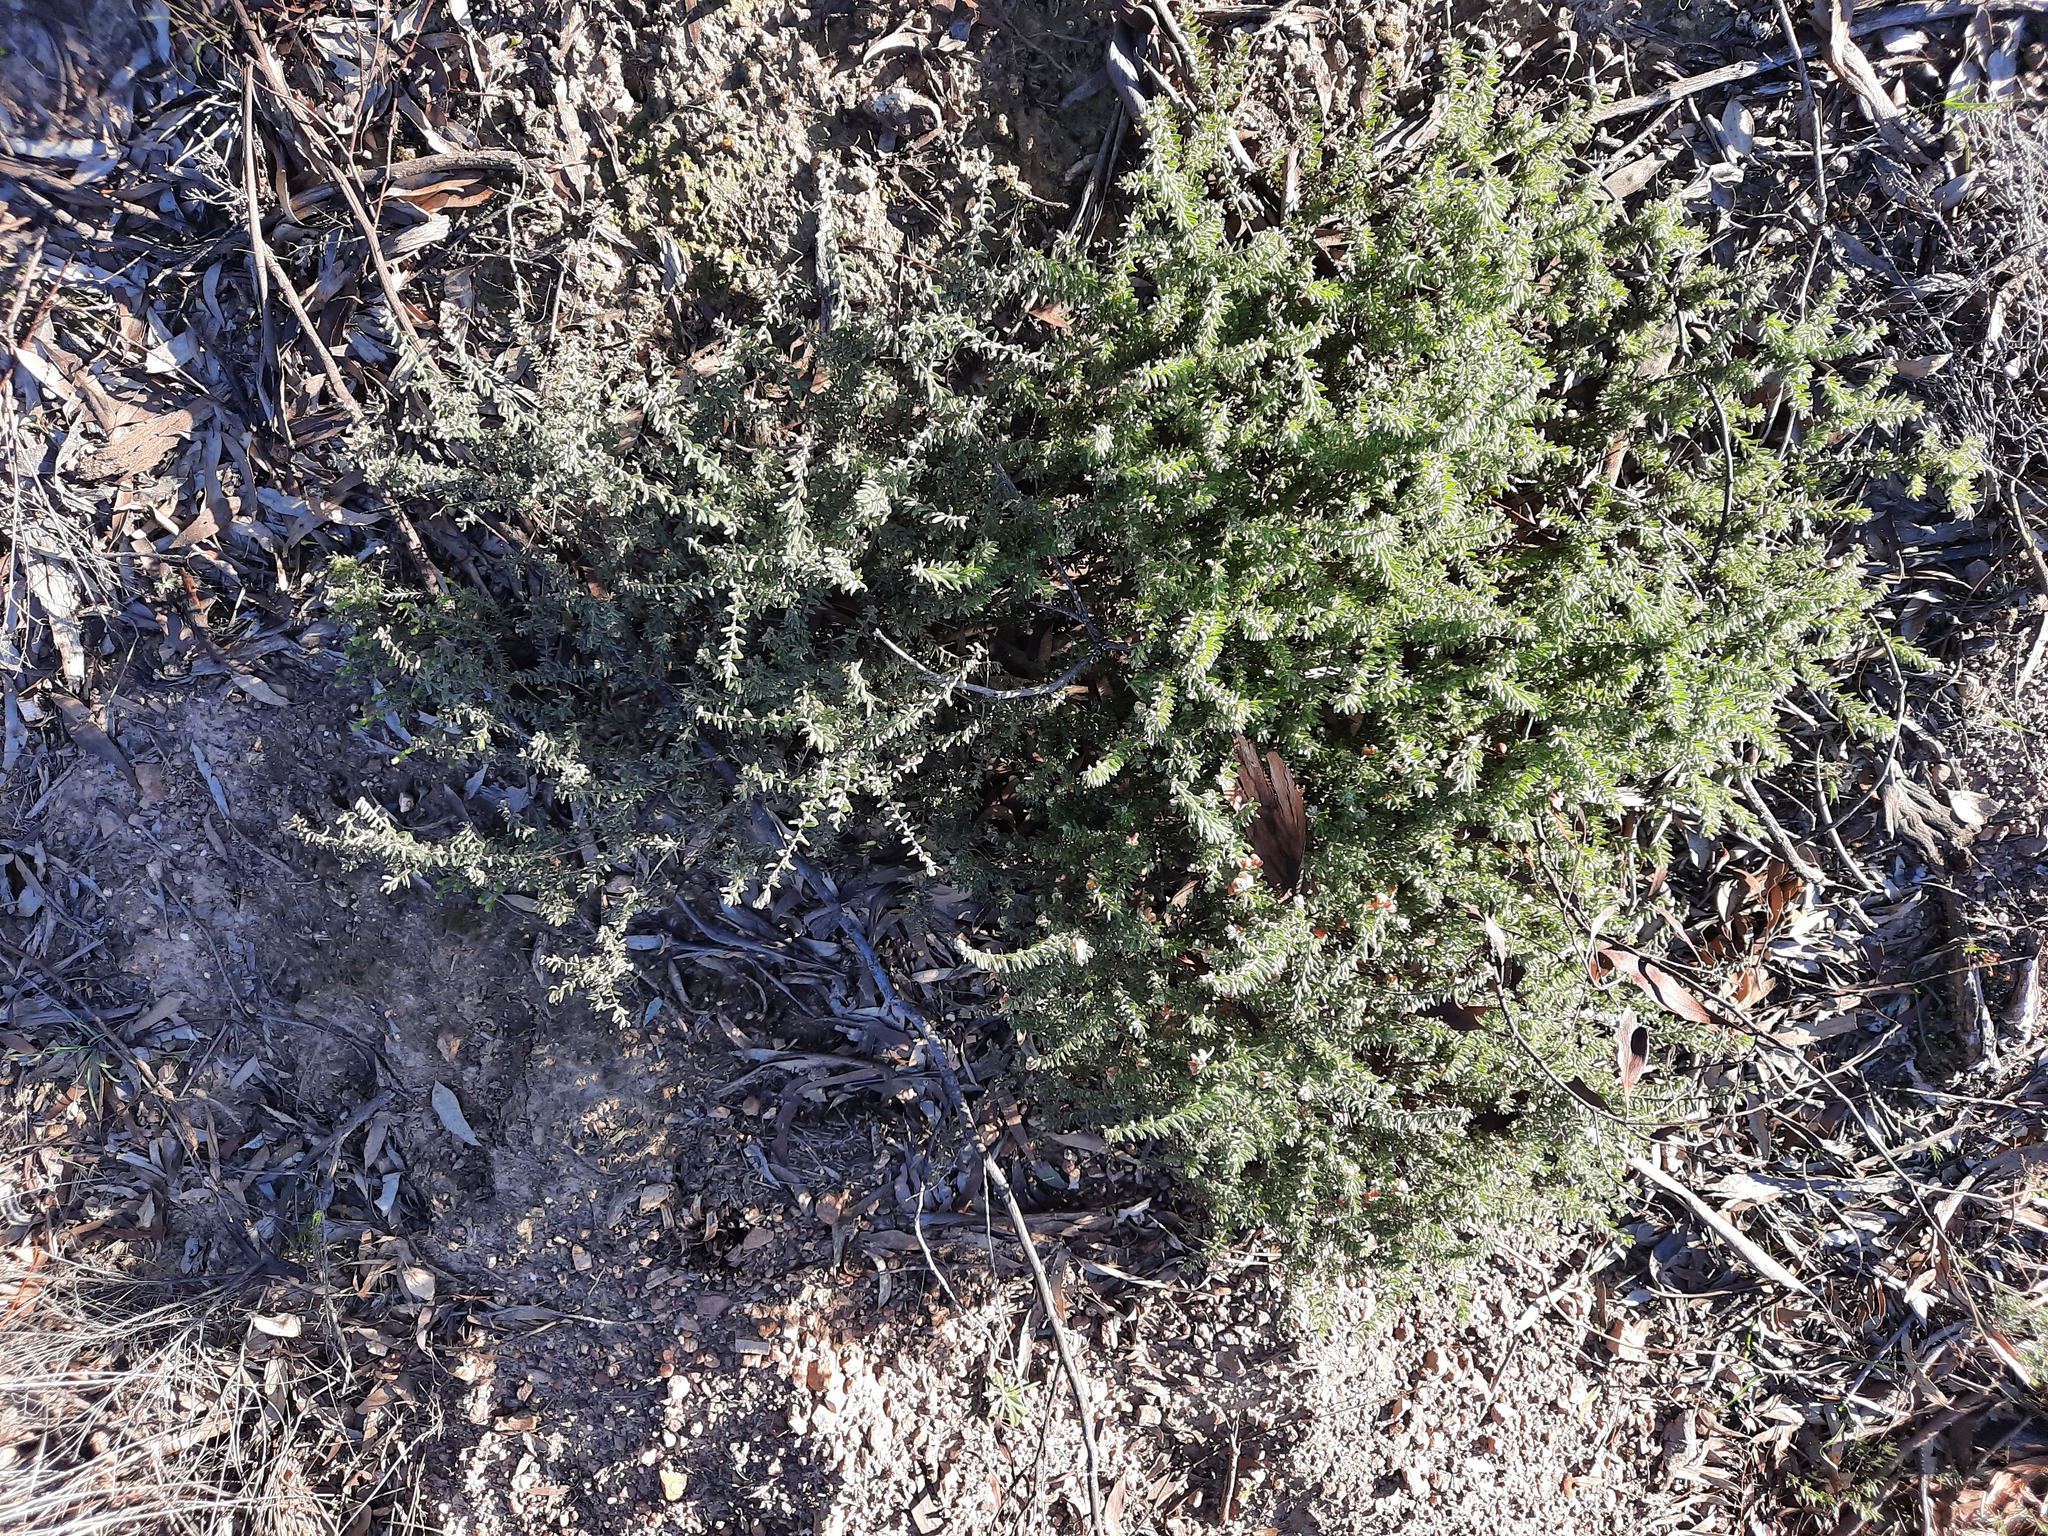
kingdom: Plantae
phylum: Tracheophyta
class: Magnoliopsida
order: Proteales
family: Proteaceae
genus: Grevillea
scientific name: Grevillea alpina
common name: Catclaws grevillea
